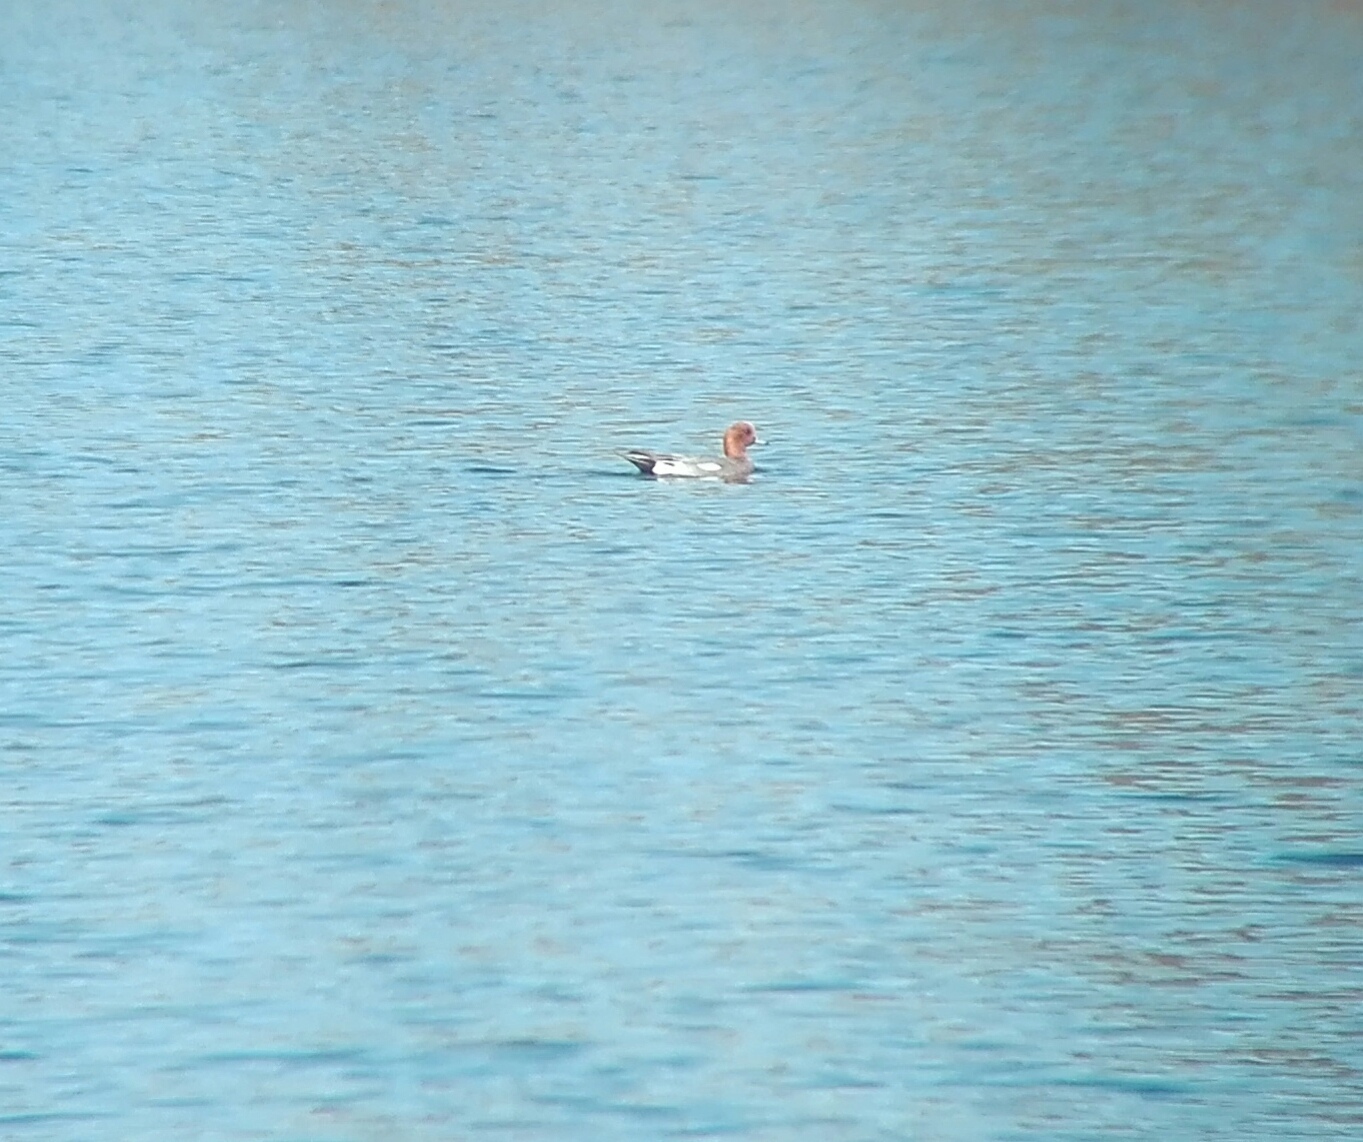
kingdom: Animalia
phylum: Chordata
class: Aves
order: Anseriformes
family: Anatidae
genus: Mareca
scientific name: Mareca penelope
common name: Eurasian wigeon
